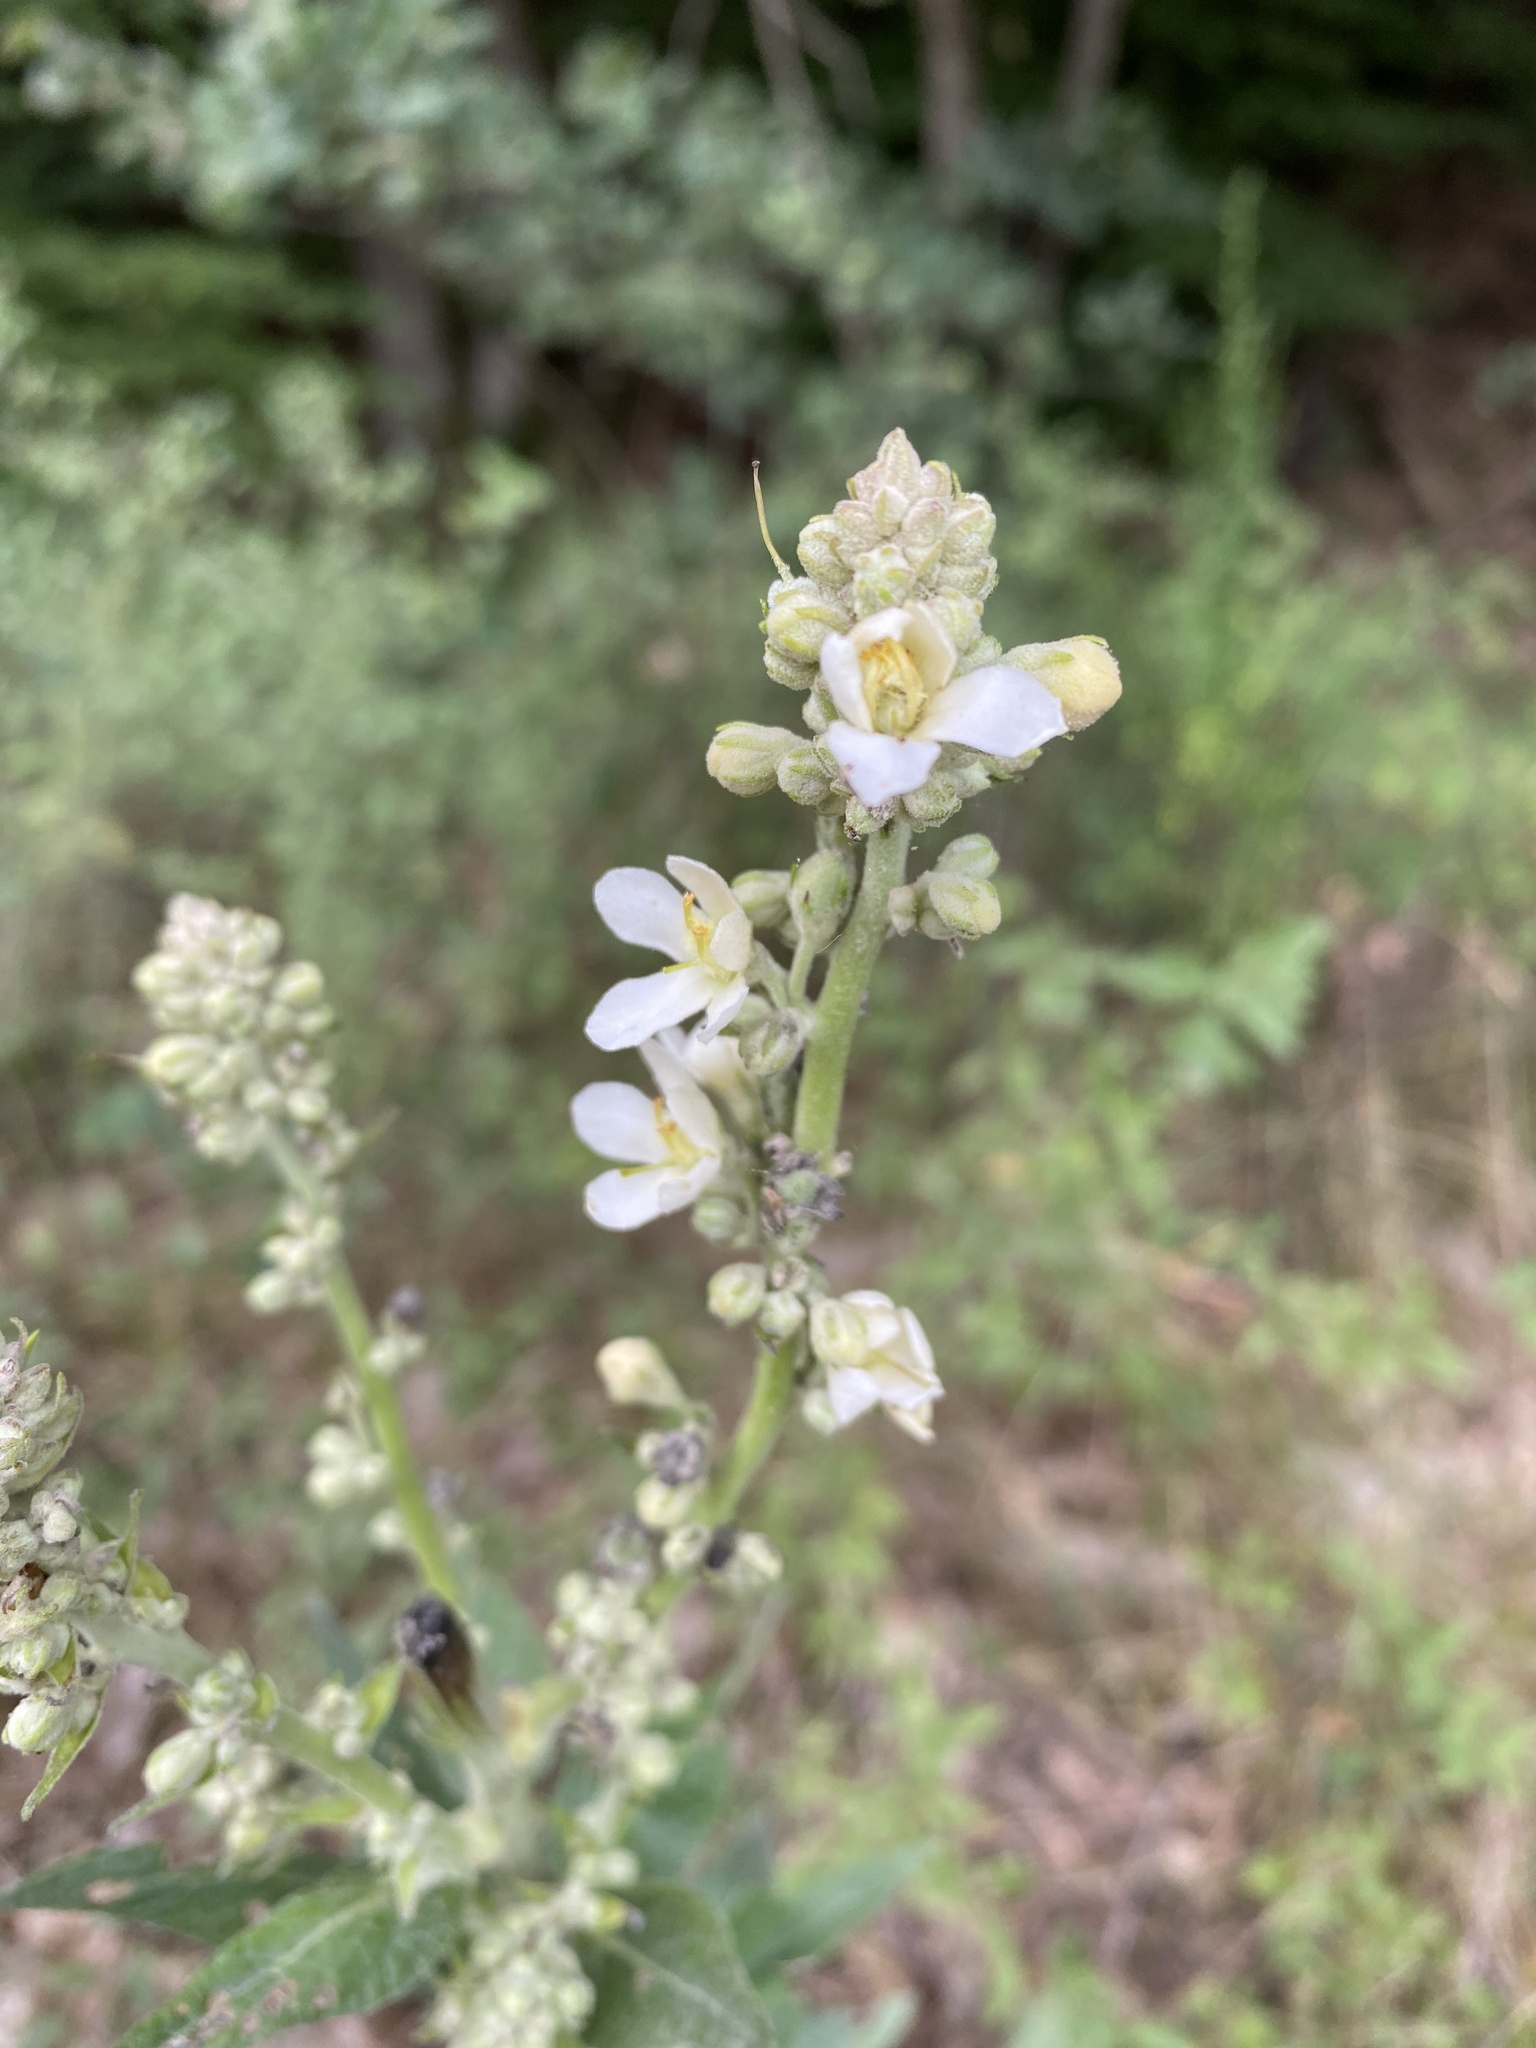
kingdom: Plantae
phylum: Tracheophyta
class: Magnoliopsida
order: Lamiales
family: Scrophulariaceae
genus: Verbascum
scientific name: Verbascum lychnitis
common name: White mullein
